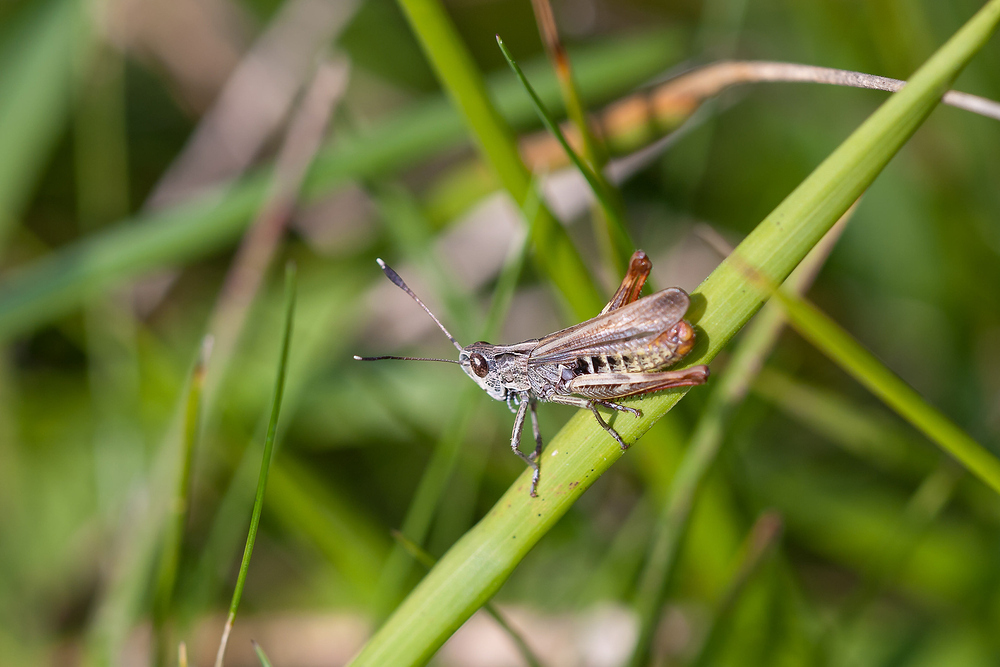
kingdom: Animalia
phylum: Arthropoda
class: Insecta
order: Orthoptera
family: Acrididae
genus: Gomphocerippus
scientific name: Gomphocerippus rufus
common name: Rufous grasshopper
